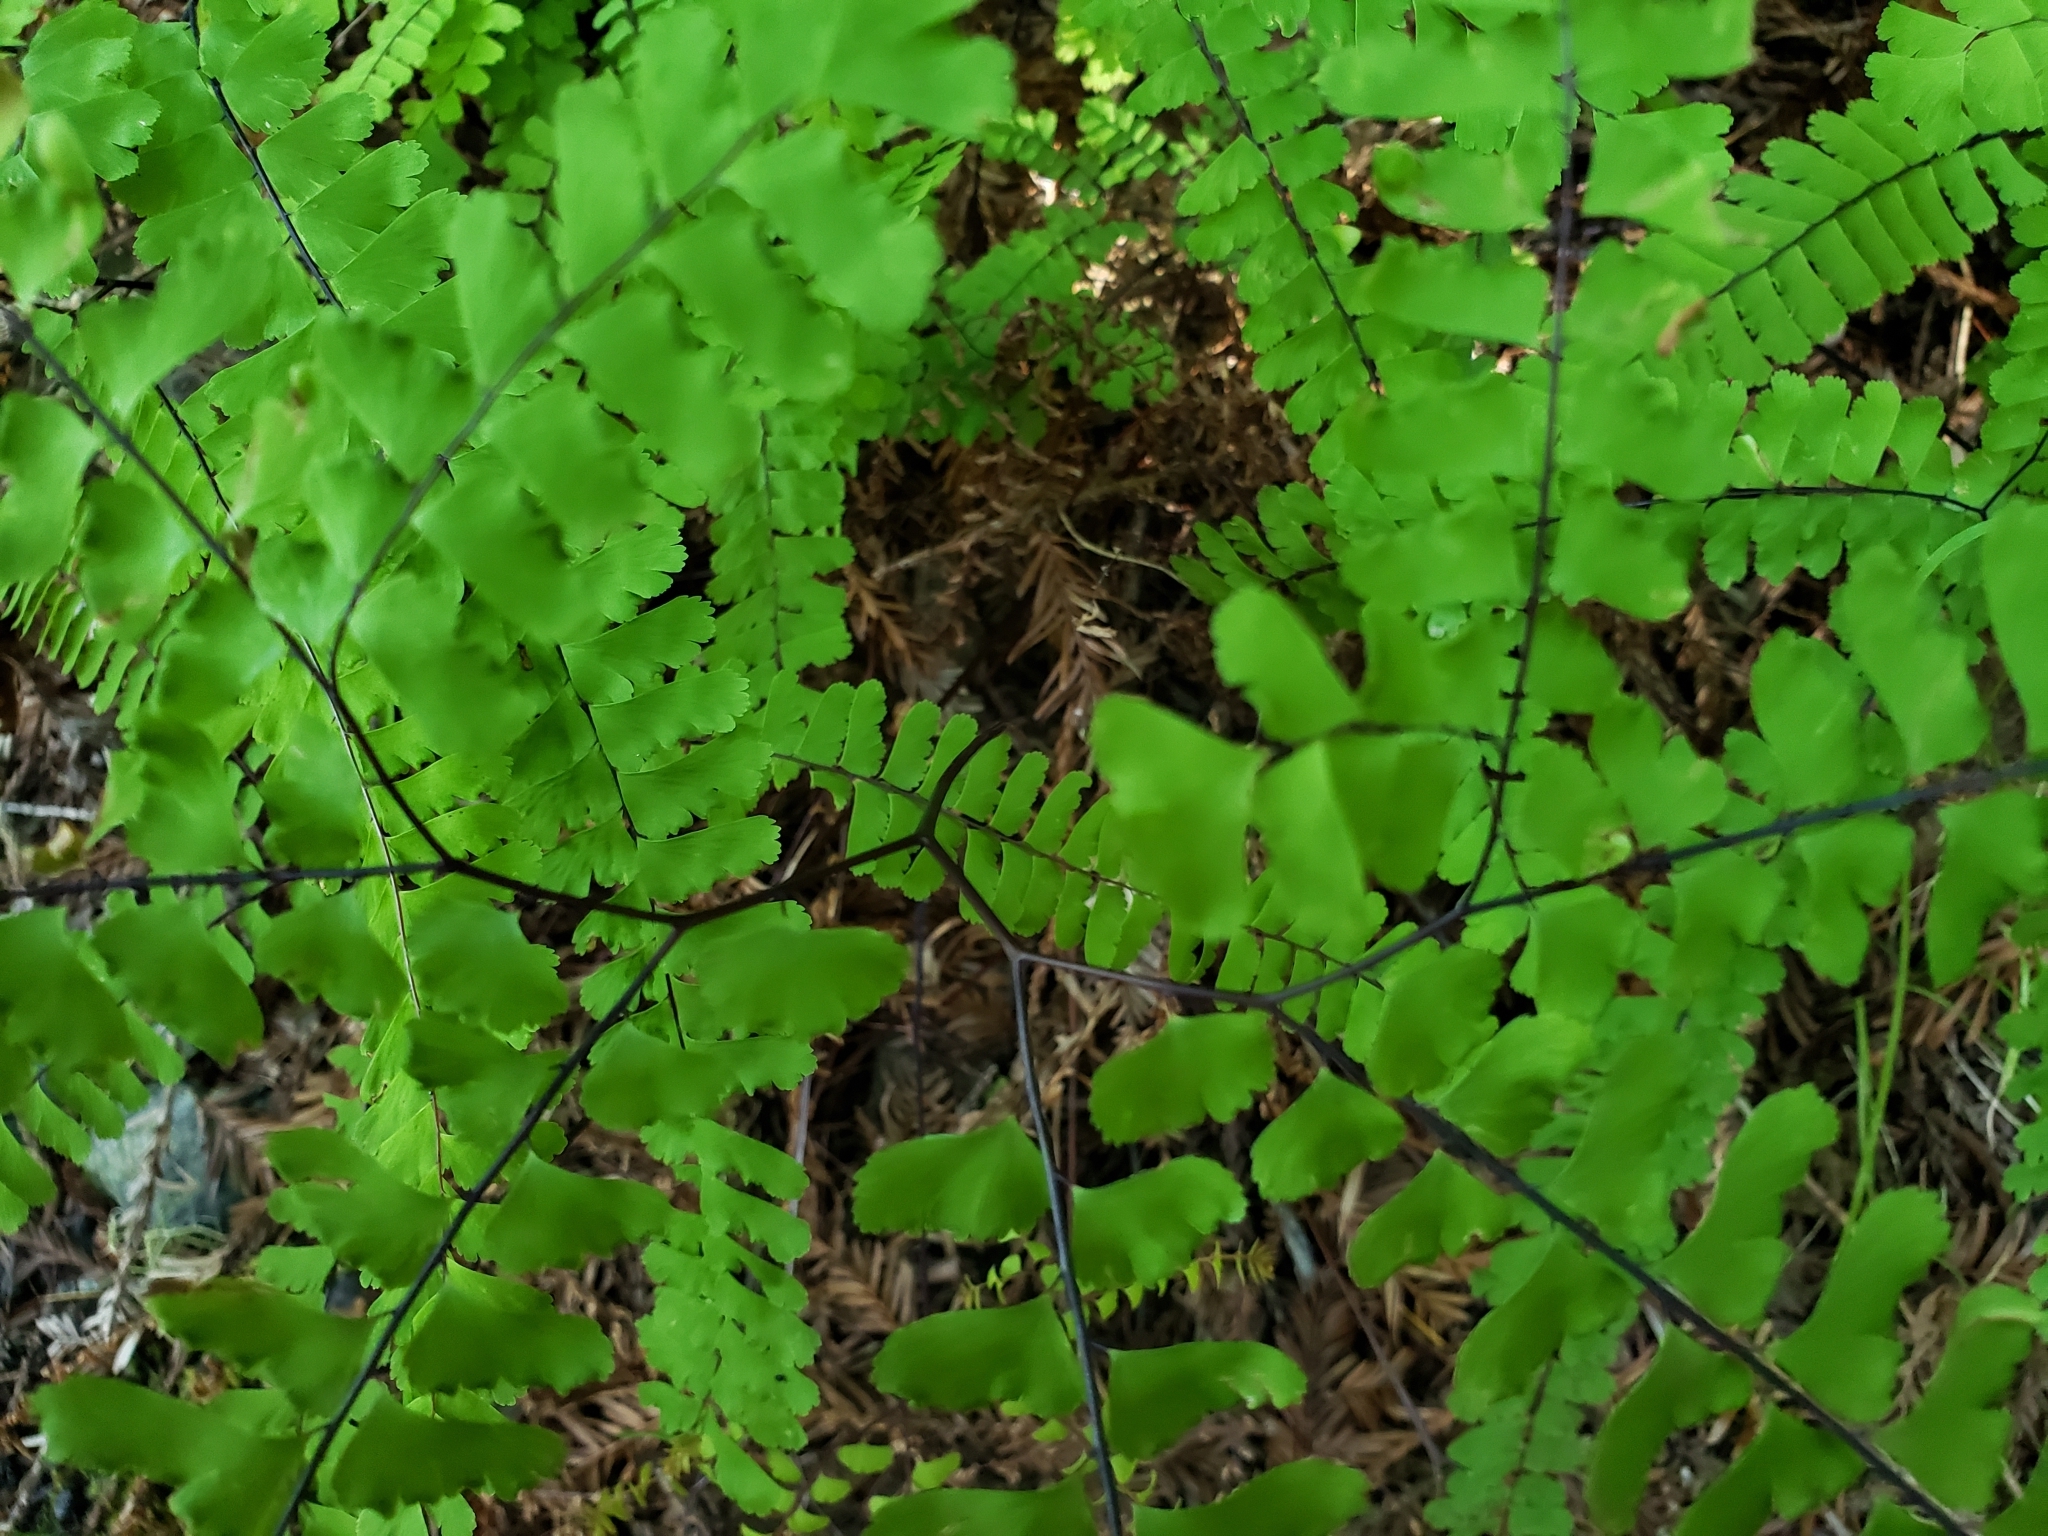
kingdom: Plantae
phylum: Tracheophyta
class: Polypodiopsida
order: Polypodiales
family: Pteridaceae
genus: Adiantum
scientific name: Adiantum aleuticum
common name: Aleutian maidenhair fern
